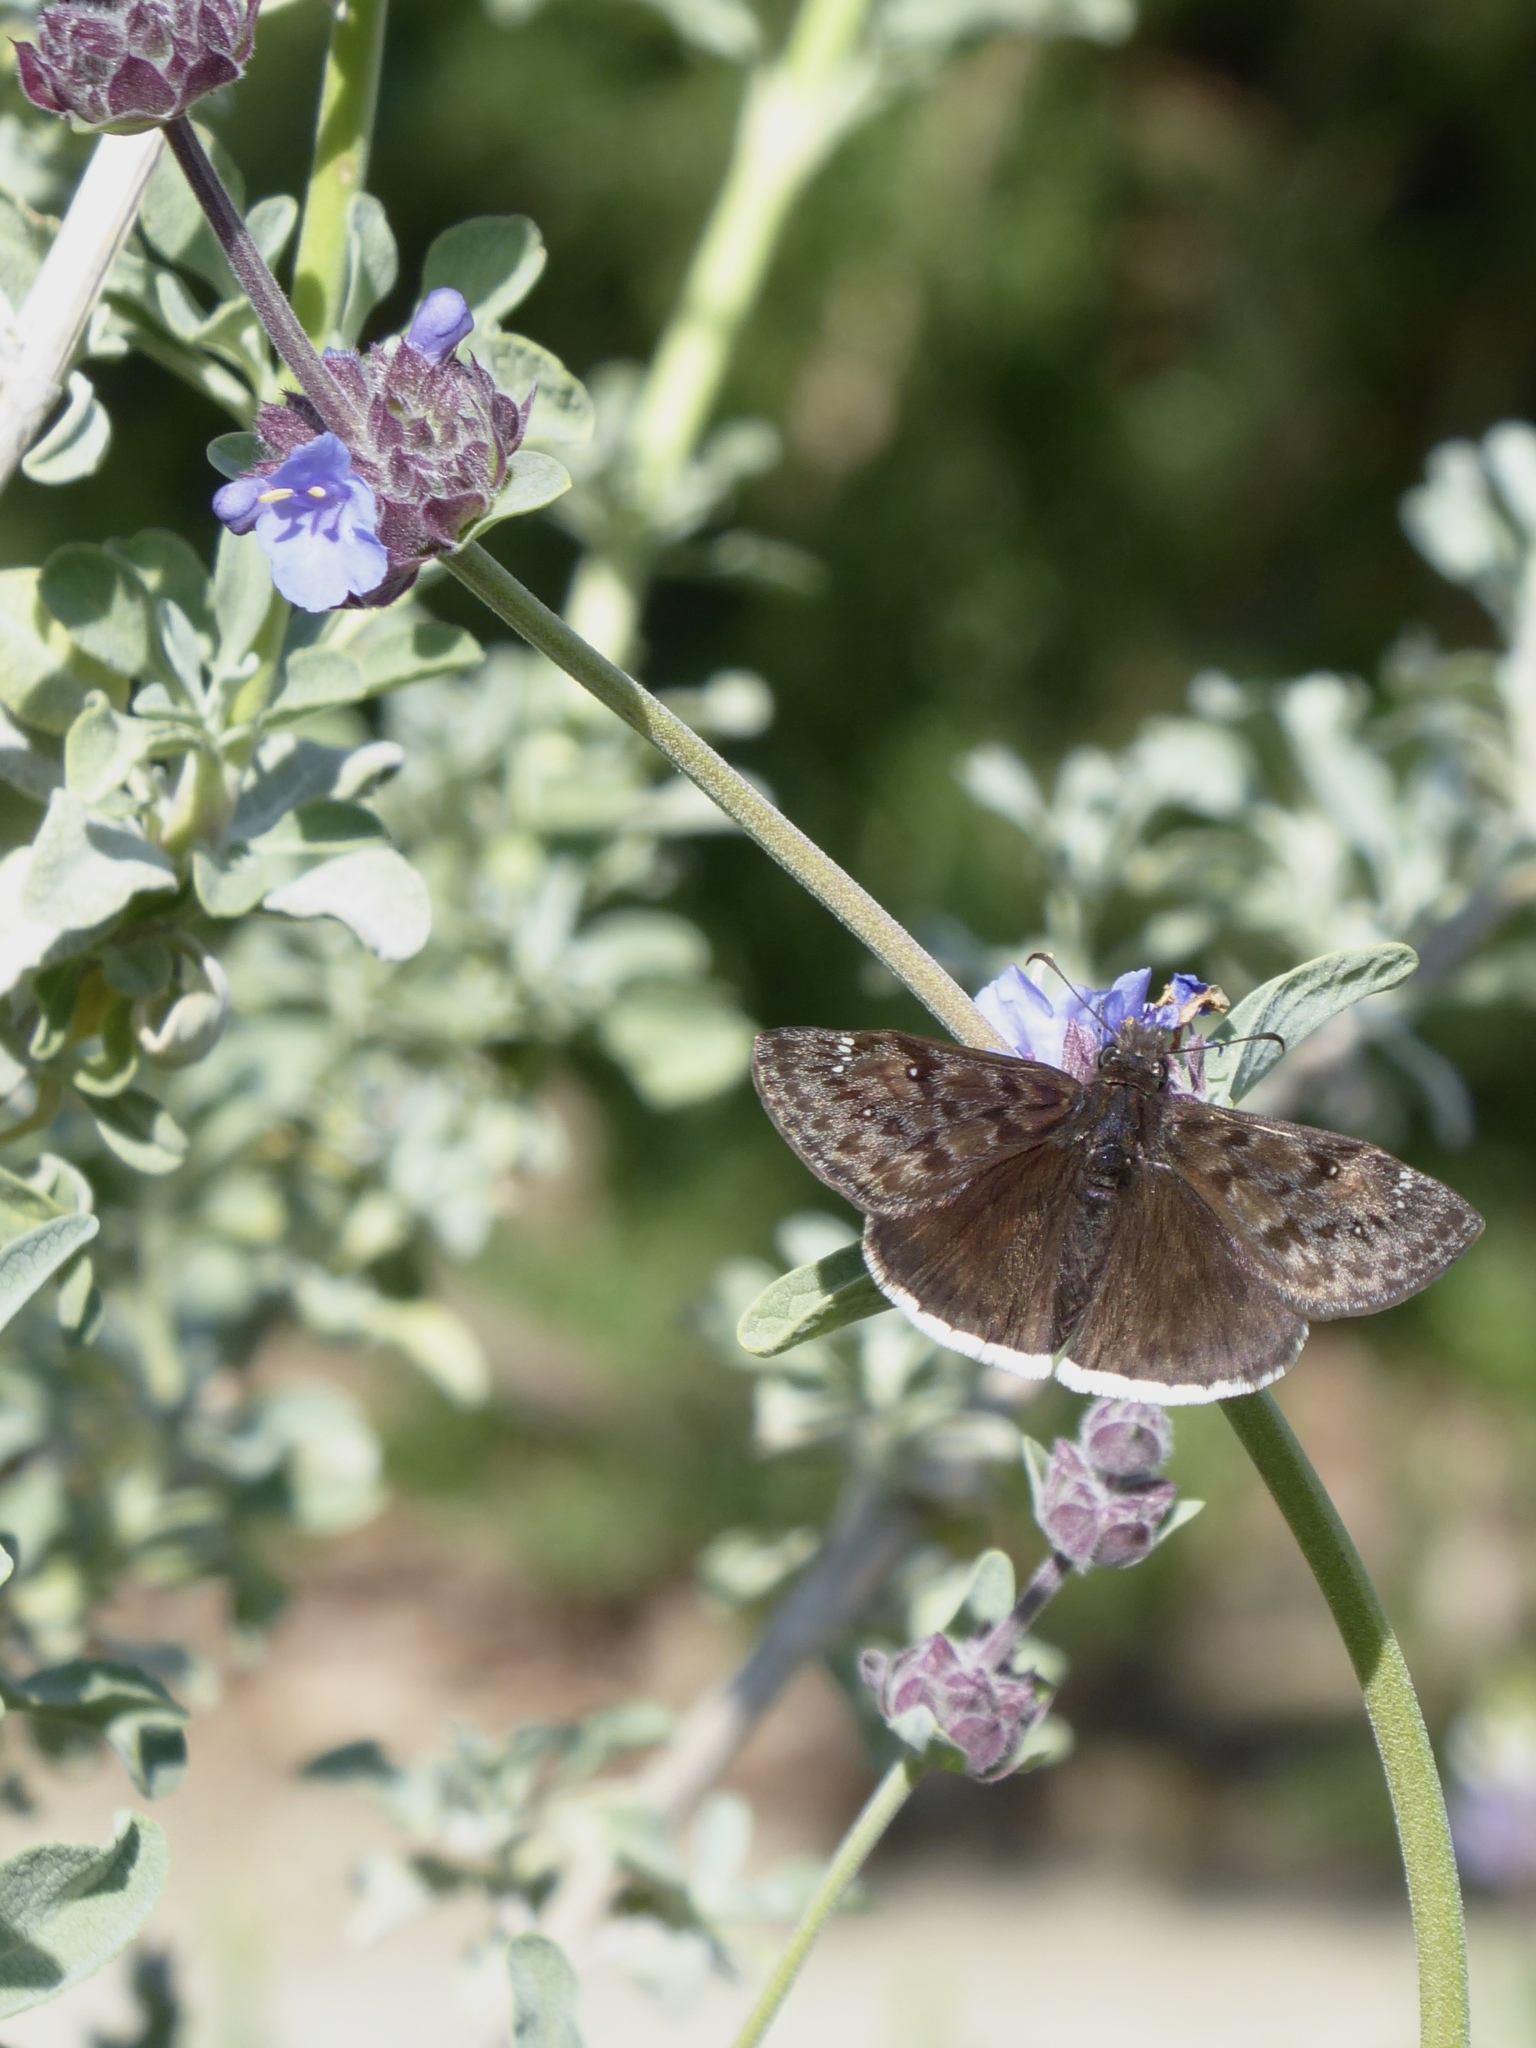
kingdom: Animalia
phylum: Arthropoda
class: Insecta
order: Lepidoptera
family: Hesperiidae
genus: Erynnis
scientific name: Erynnis tristis
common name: Mournful duskywing
